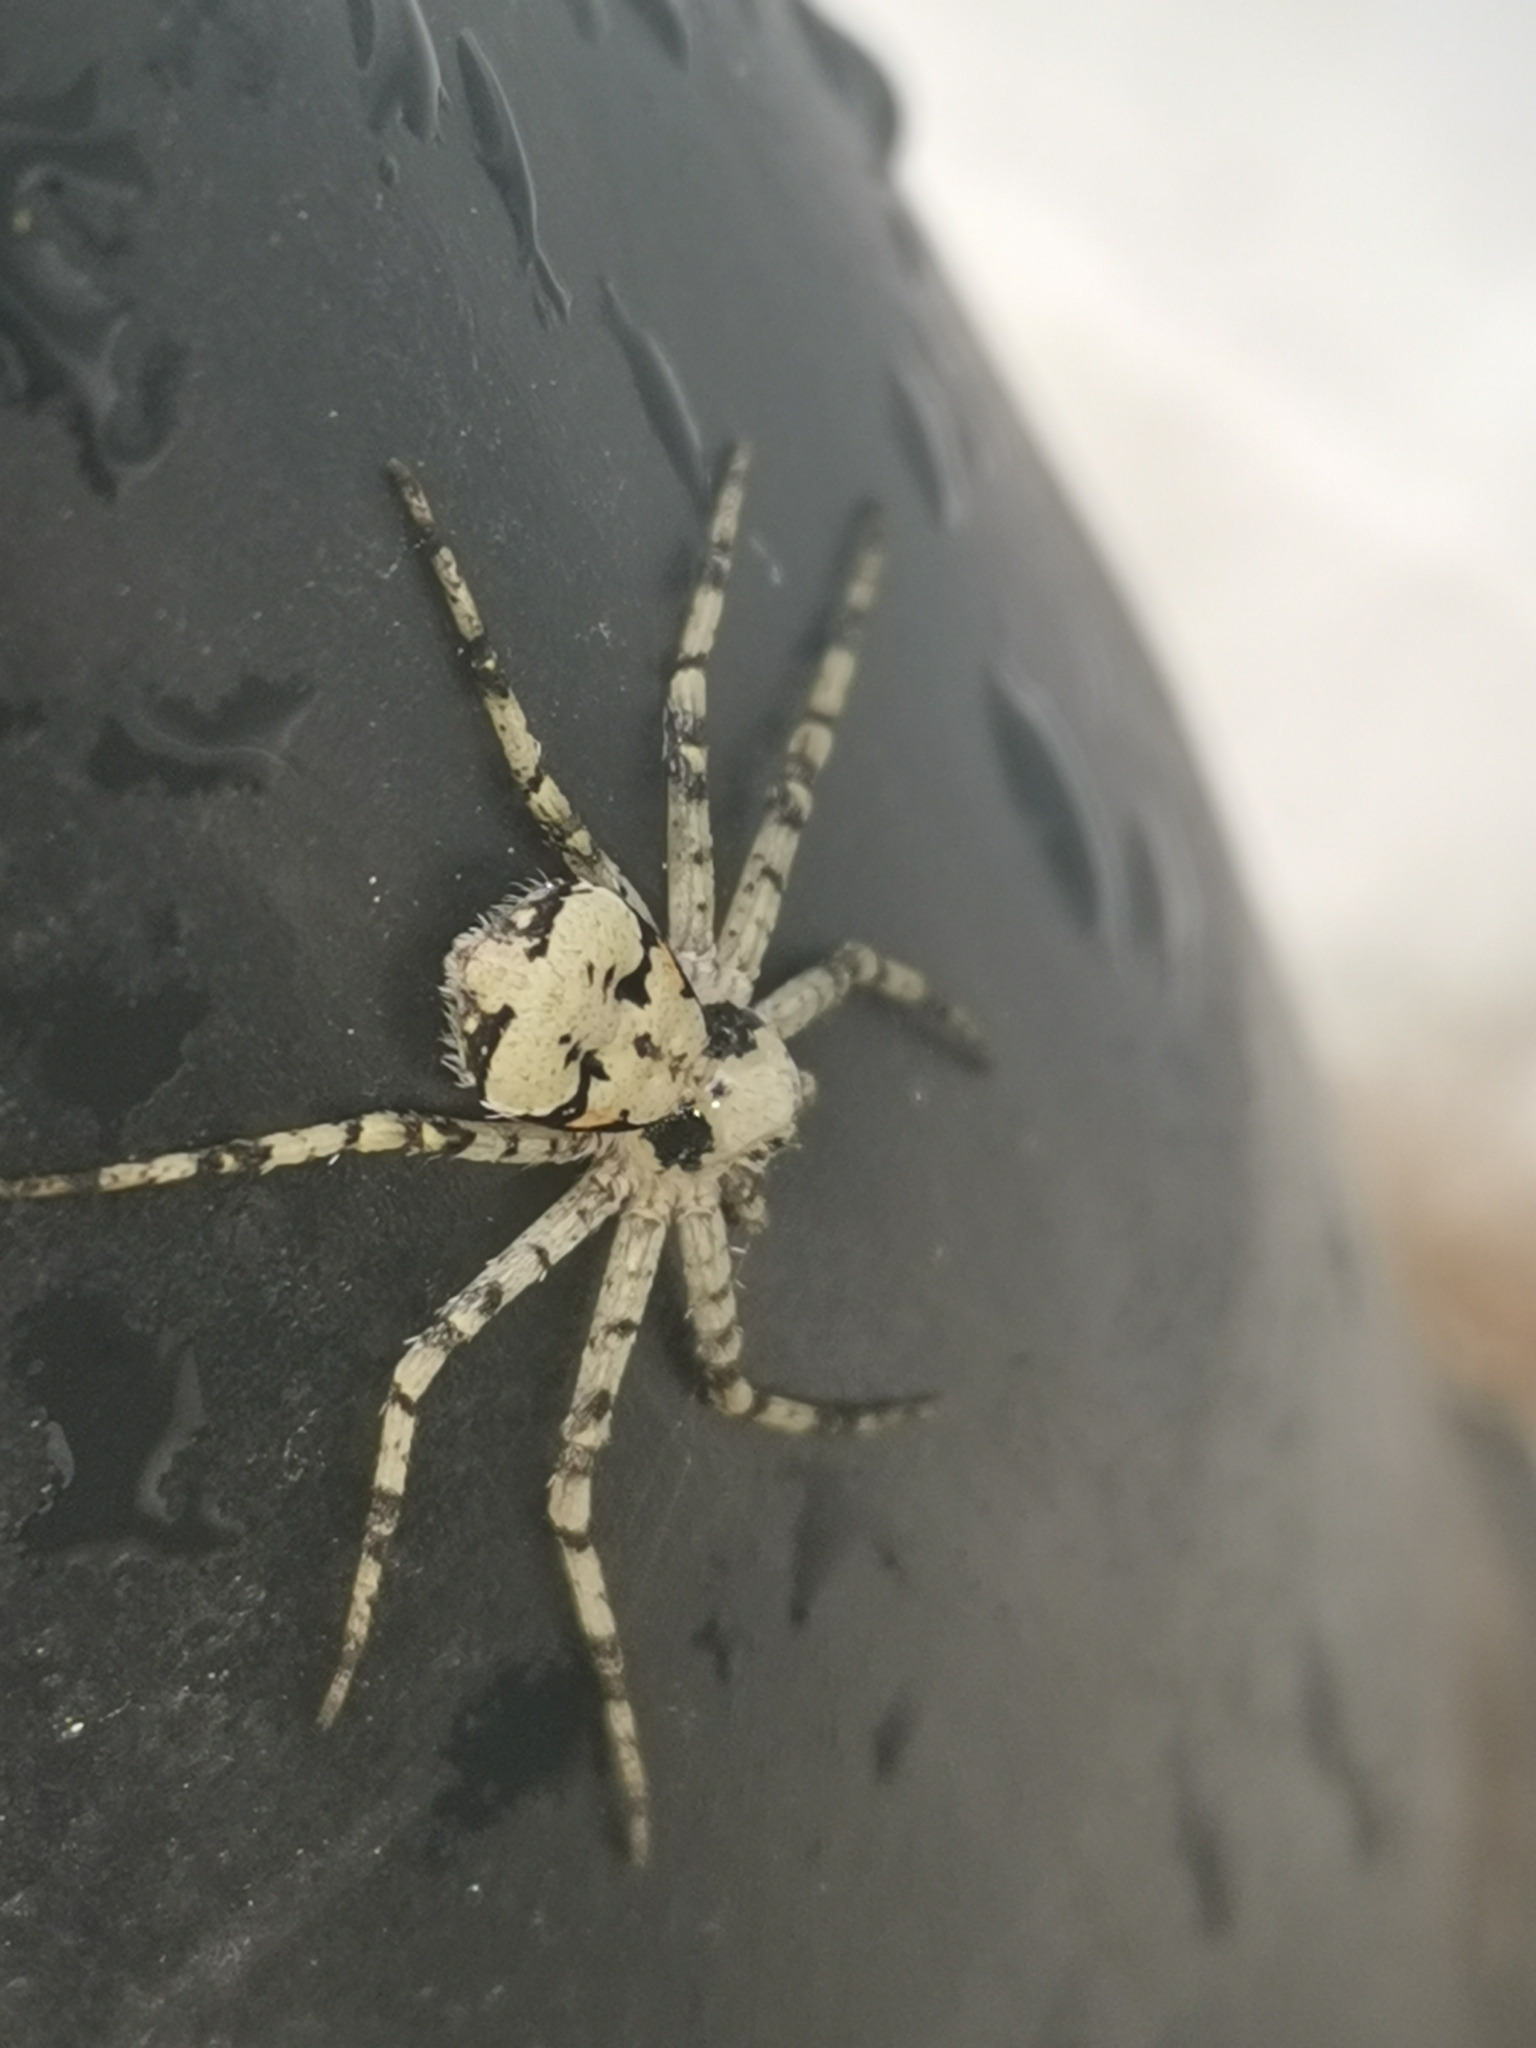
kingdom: Animalia
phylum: Arthropoda
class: Arachnida
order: Araneae
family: Philodromidae
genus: Philodromus
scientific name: Philodromus margaritatus
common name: Lichen running-spider
